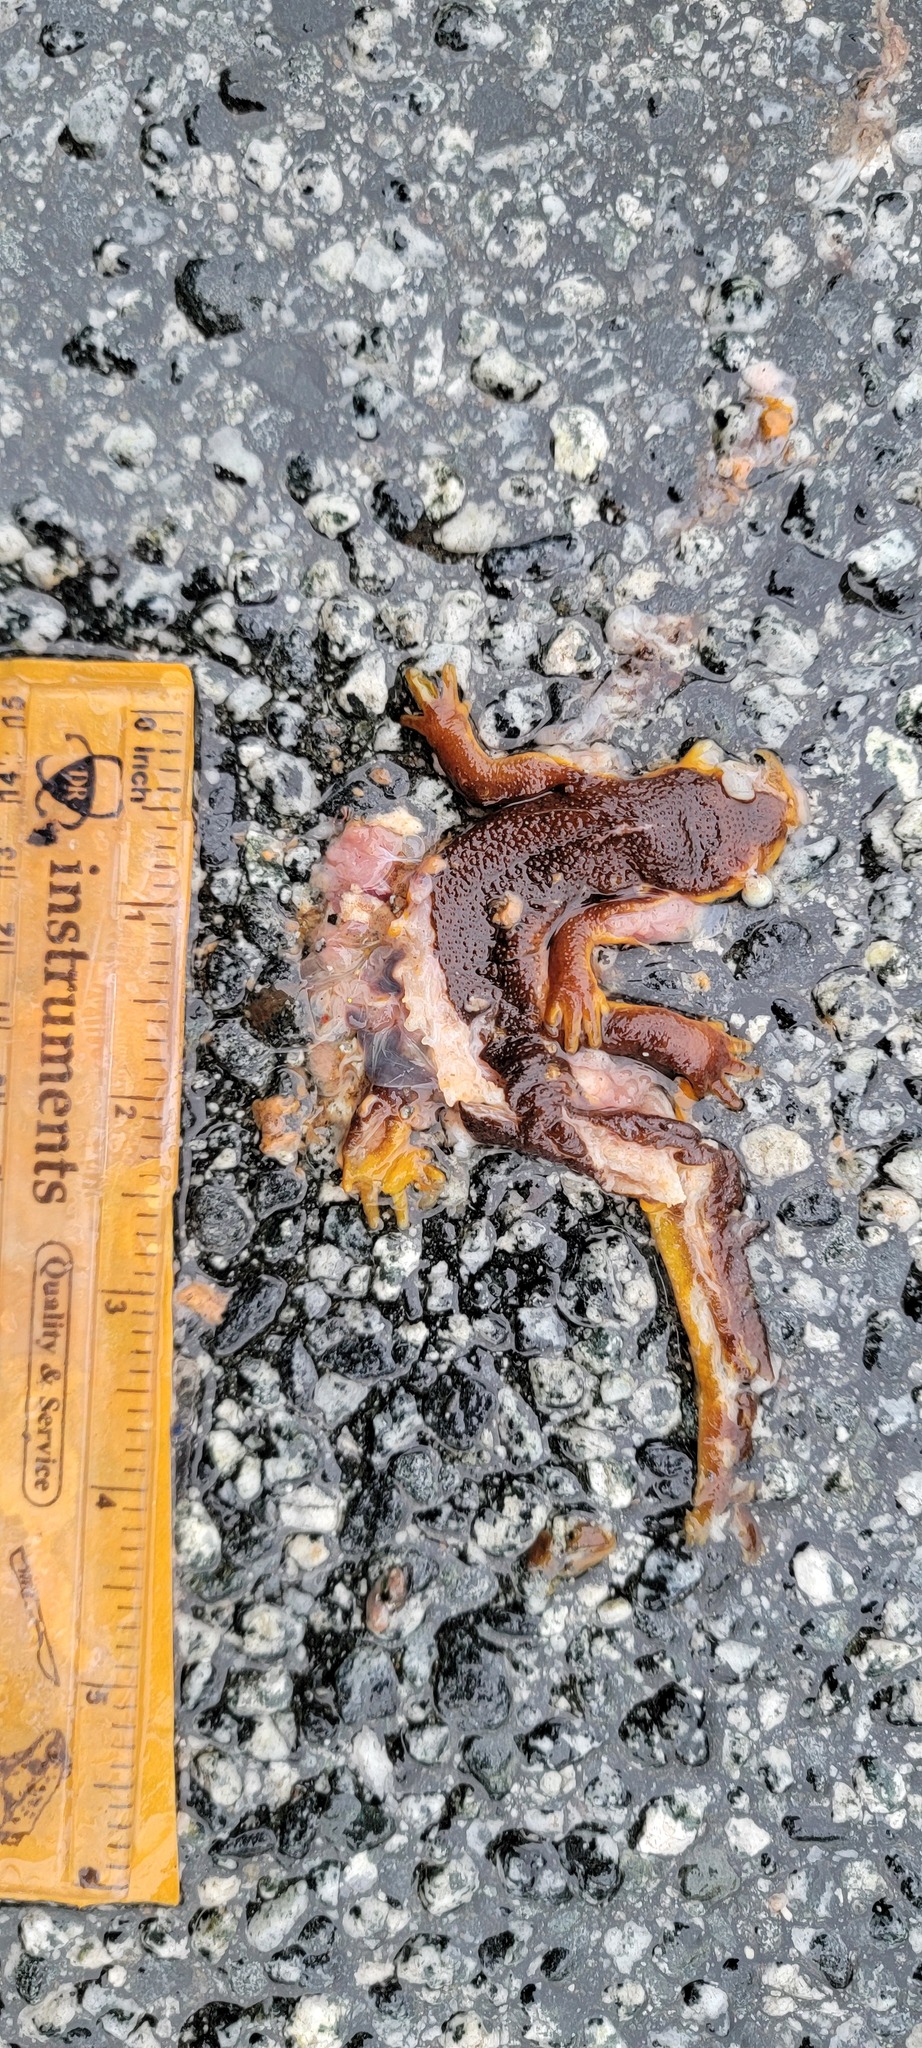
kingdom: Animalia
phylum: Chordata
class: Amphibia
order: Caudata
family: Salamandridae
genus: Taricha
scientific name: Taricha
